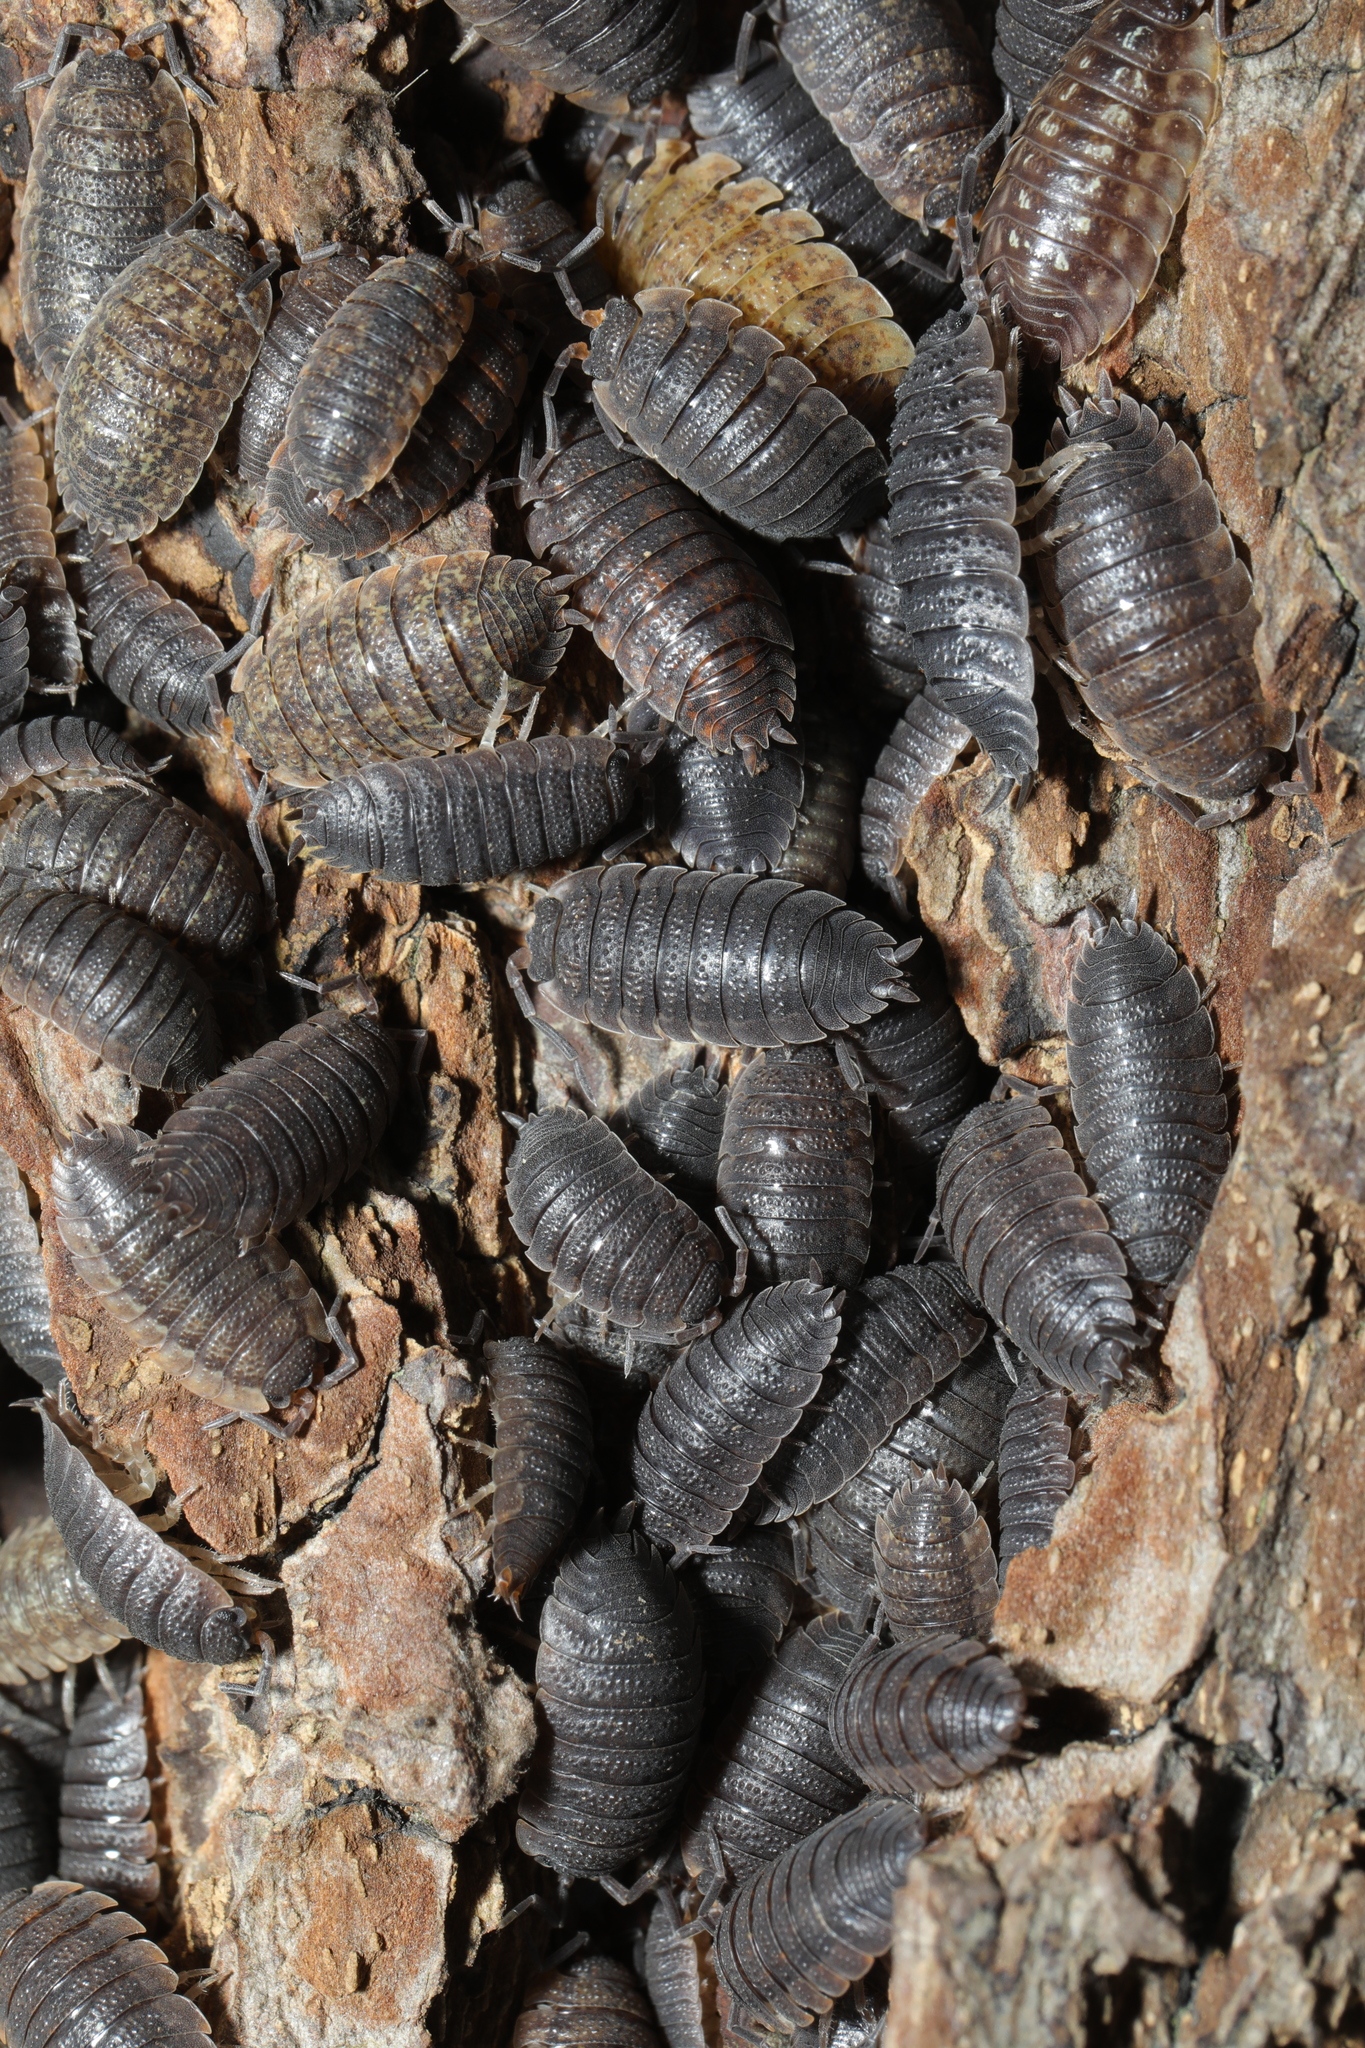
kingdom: Animalia
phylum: Arthropoda
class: Malacostraca
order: Isopoda
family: Porcellionidae
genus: Porcellio
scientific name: Porcellio scaber
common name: Common rough woodlouse
